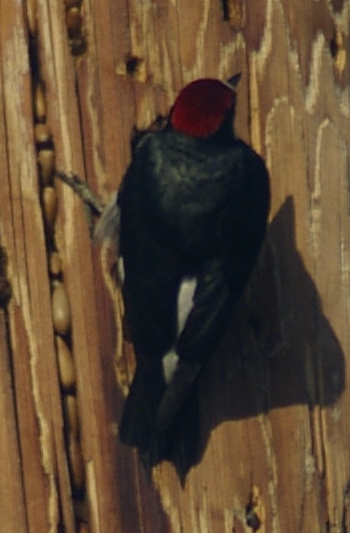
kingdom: Animalia
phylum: Chordata
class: Aves
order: Piciformes
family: Picidae
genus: Melanerpes
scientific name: Melanerpes formicivorus
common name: Acorn woodpecker
